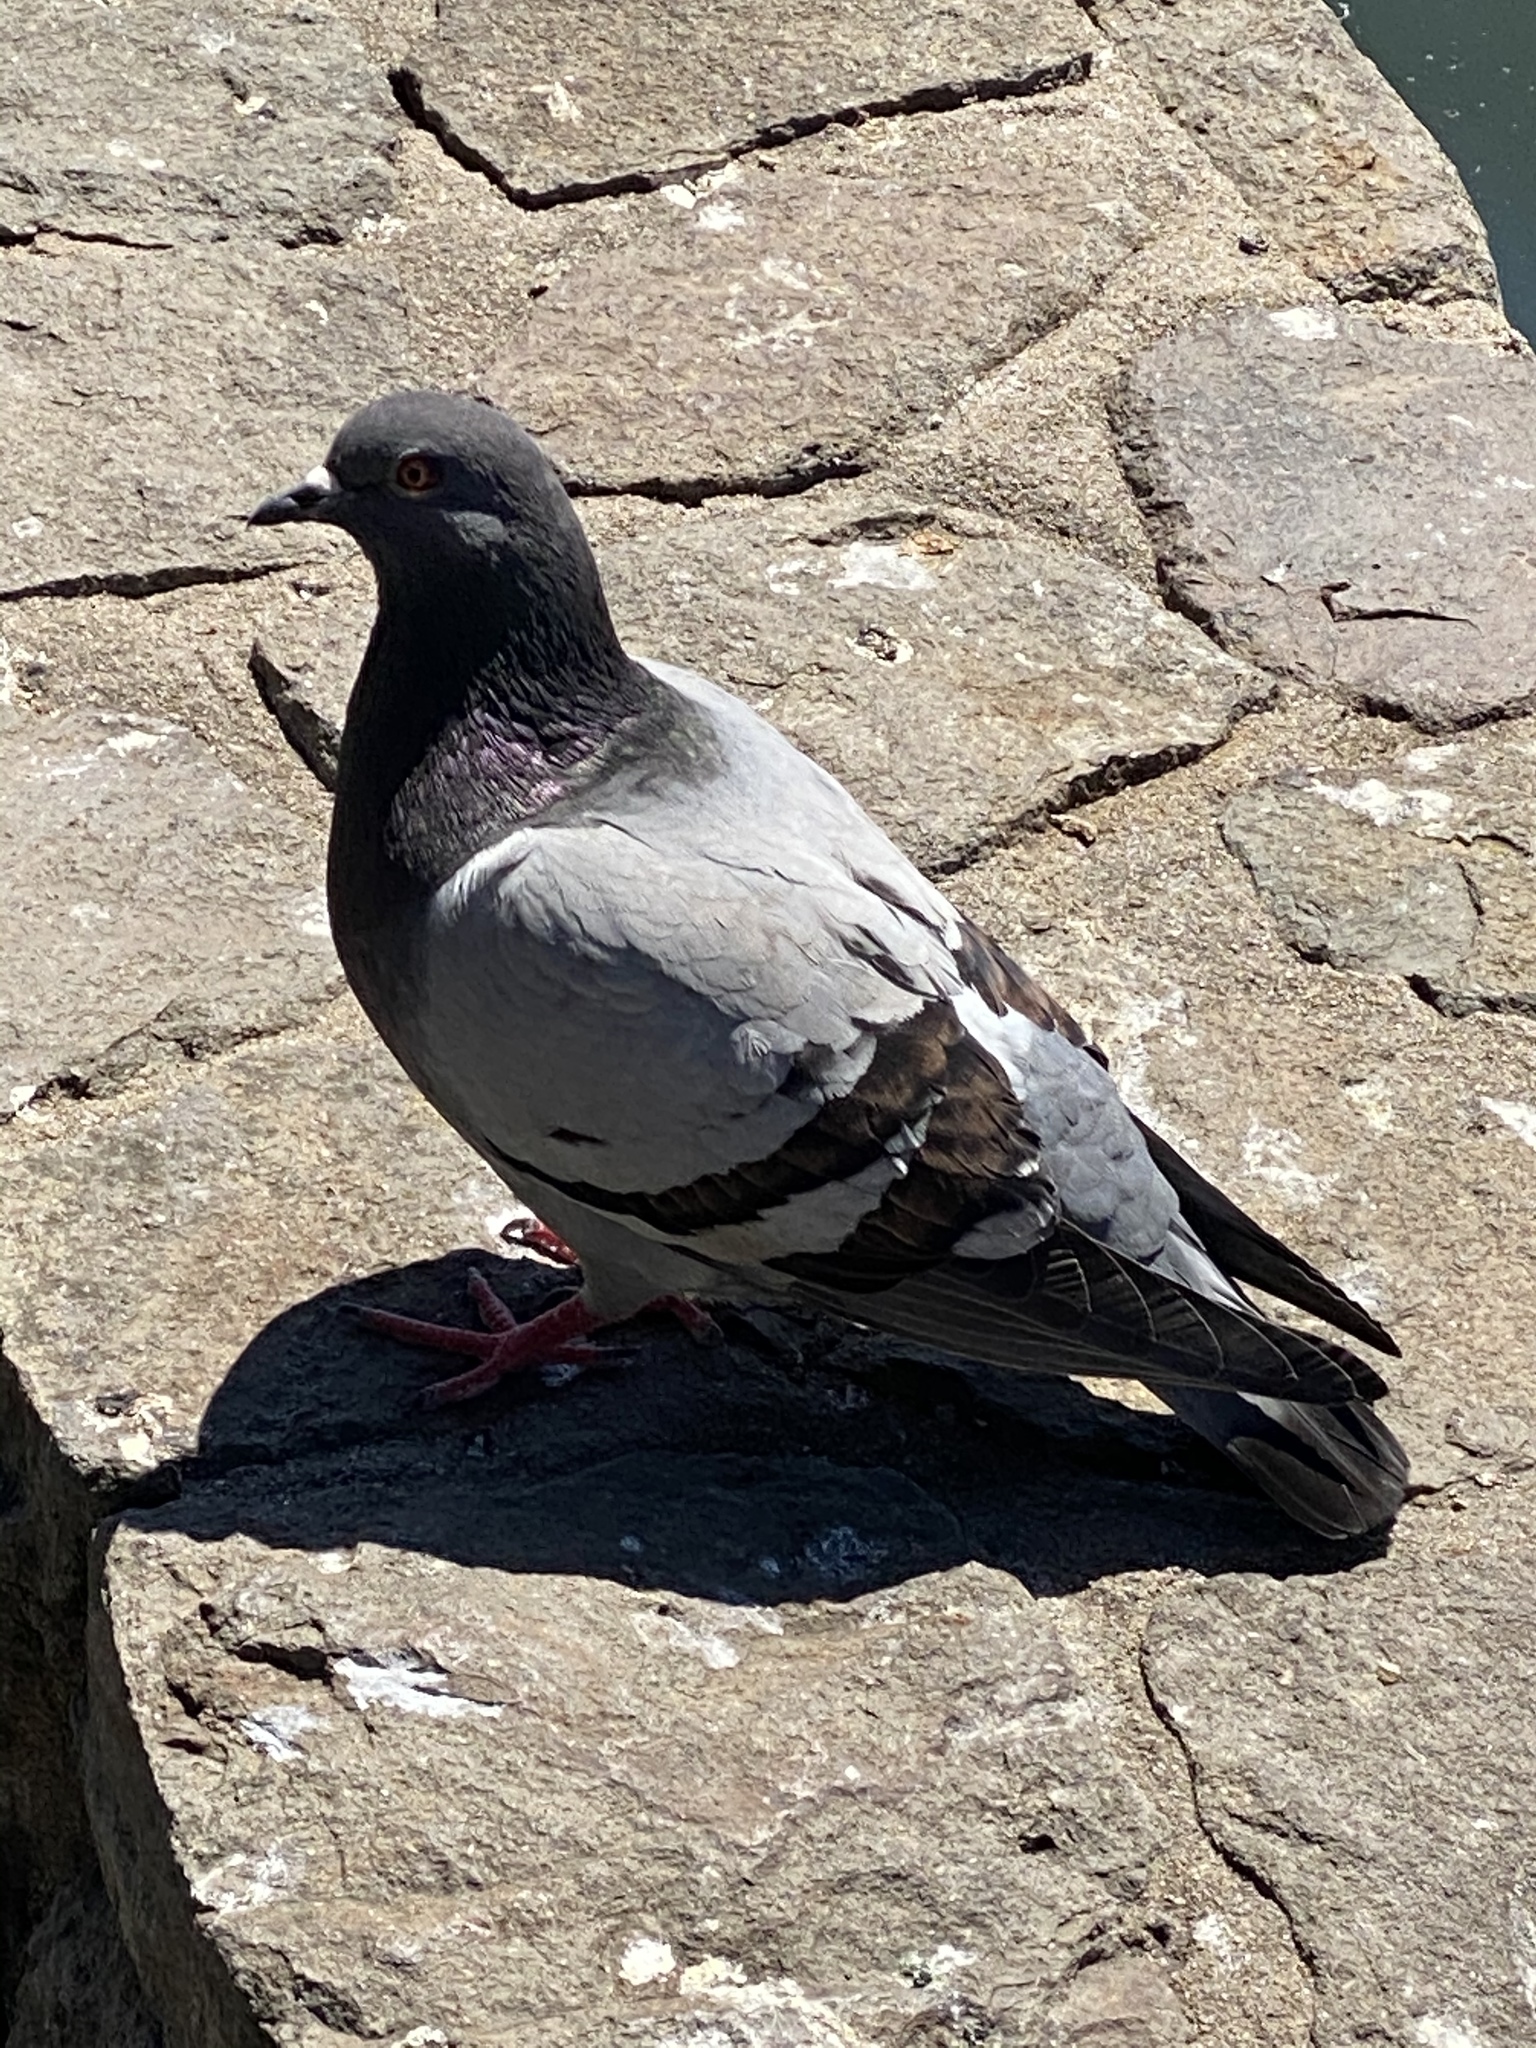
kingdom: Animalia
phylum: Chordata
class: Aves
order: Columbiformes
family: Columbidae
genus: Columba
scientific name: Columba livia
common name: Rock pigeon
